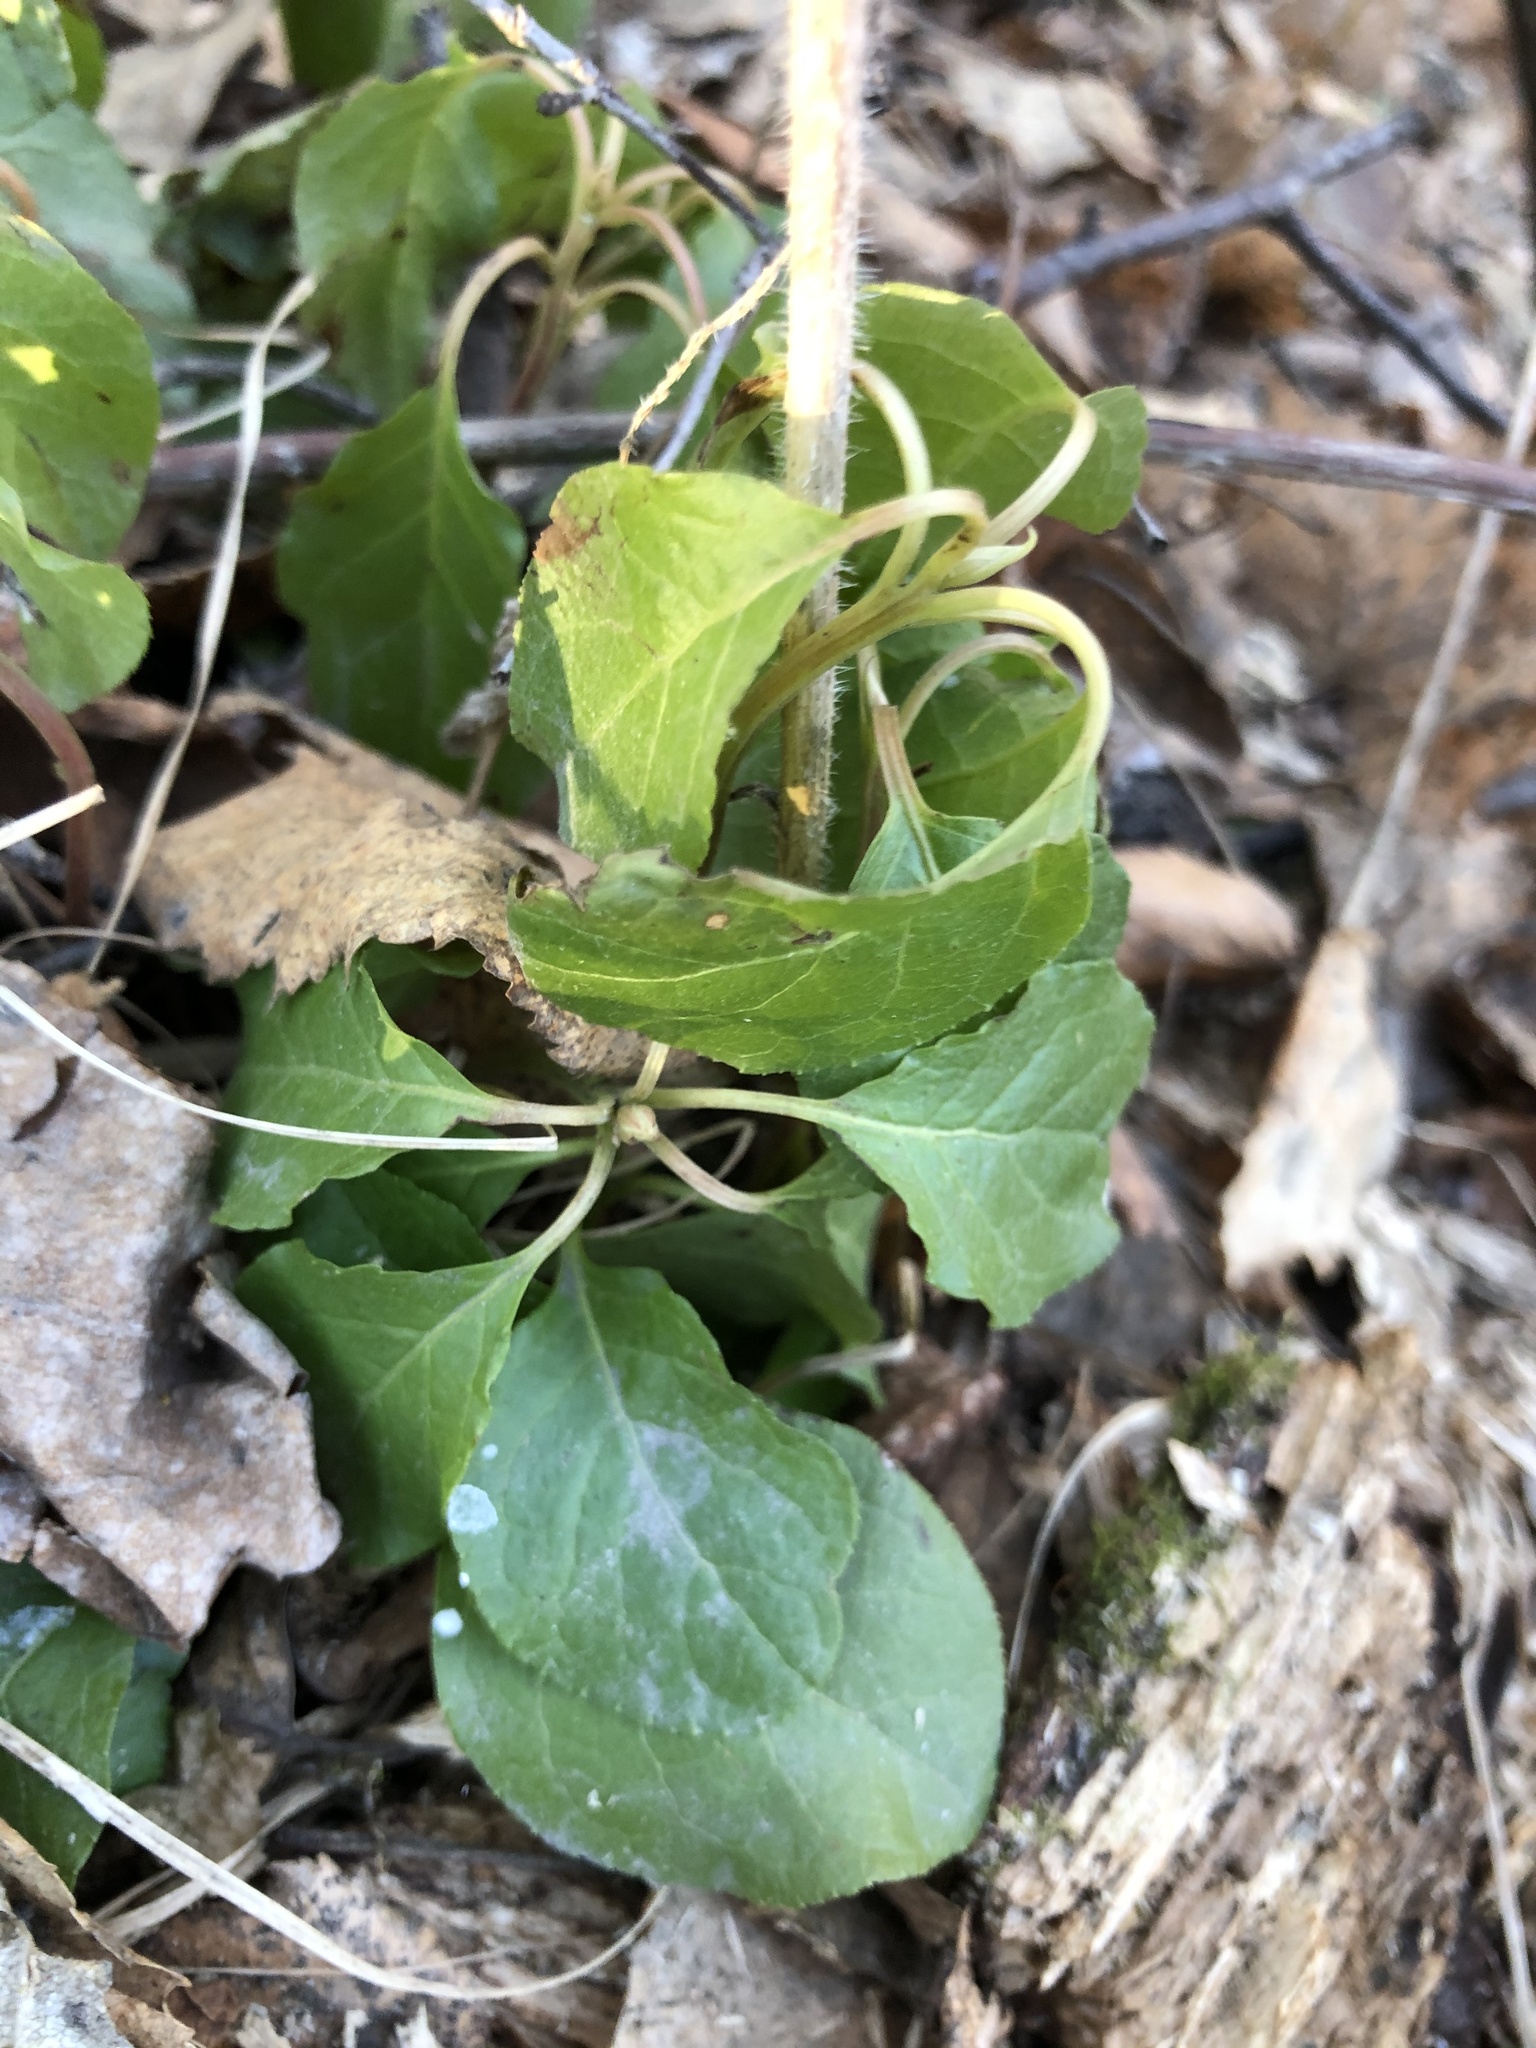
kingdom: Plantae
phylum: Tracheophyta
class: Magnoliopsida
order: Ericales
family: Ericaceae
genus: Orthilia
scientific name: Orthilia secunda
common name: One-sided orthilia
